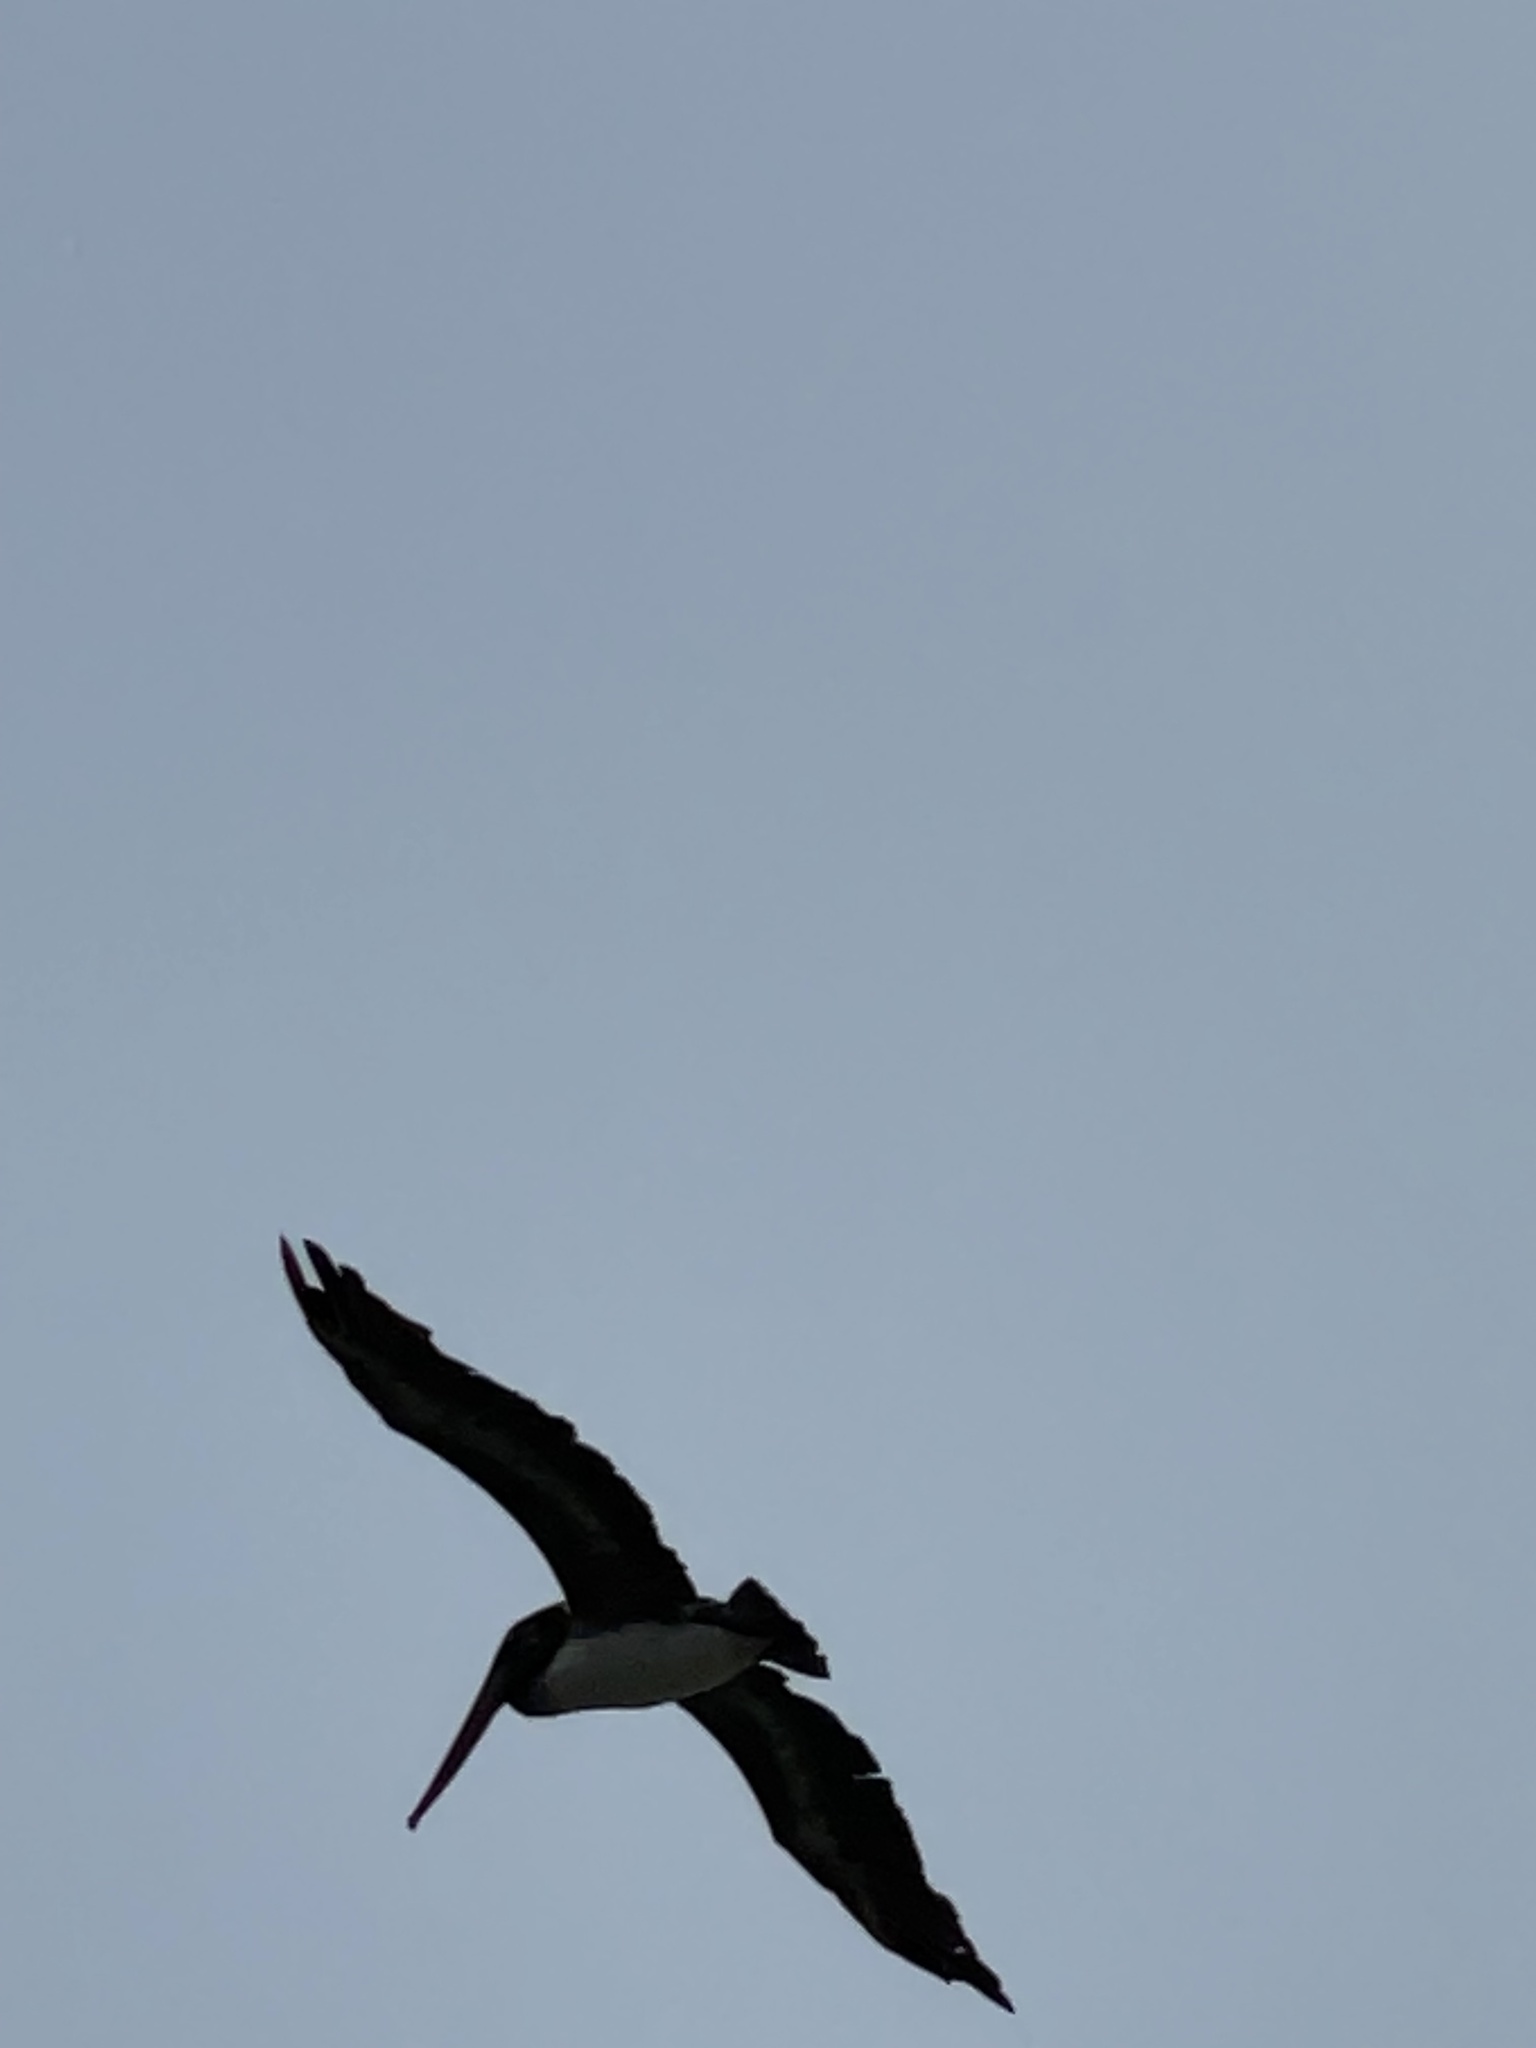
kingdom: Animalia
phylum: Chordata
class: Aves
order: Pelecaniformes
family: Pelecanidae
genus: Pelecanus
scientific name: Pelecanus occidentalis
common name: Brown pelican
